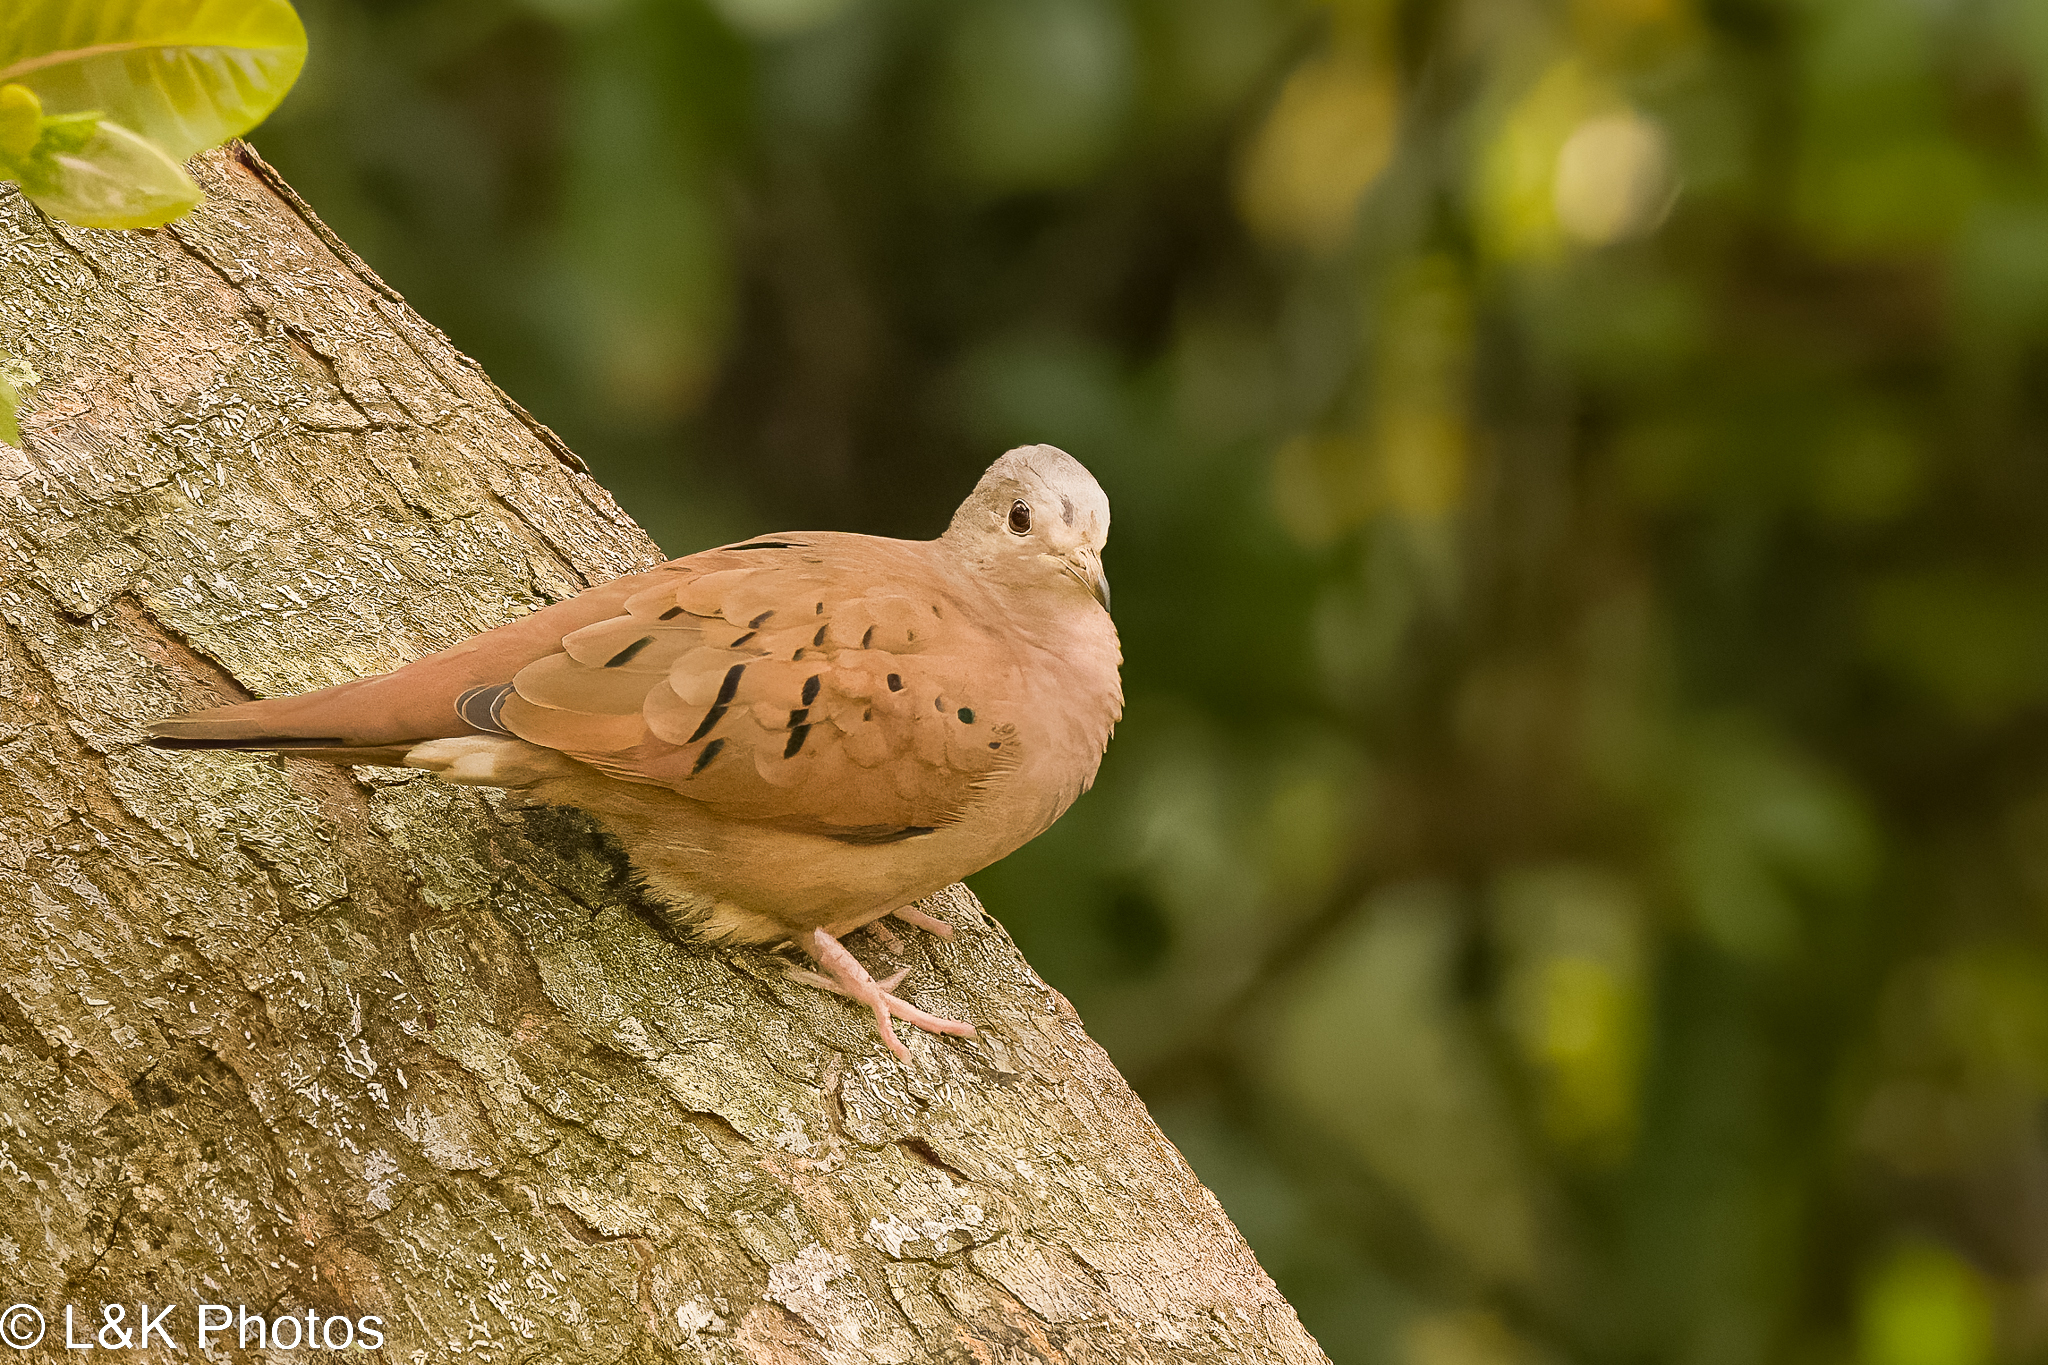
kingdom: Animalia
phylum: Chordata
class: Aves
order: Columbiformes
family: Columbidae
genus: Columbina
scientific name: Columbina talpacoti
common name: Ruddy ground dove
